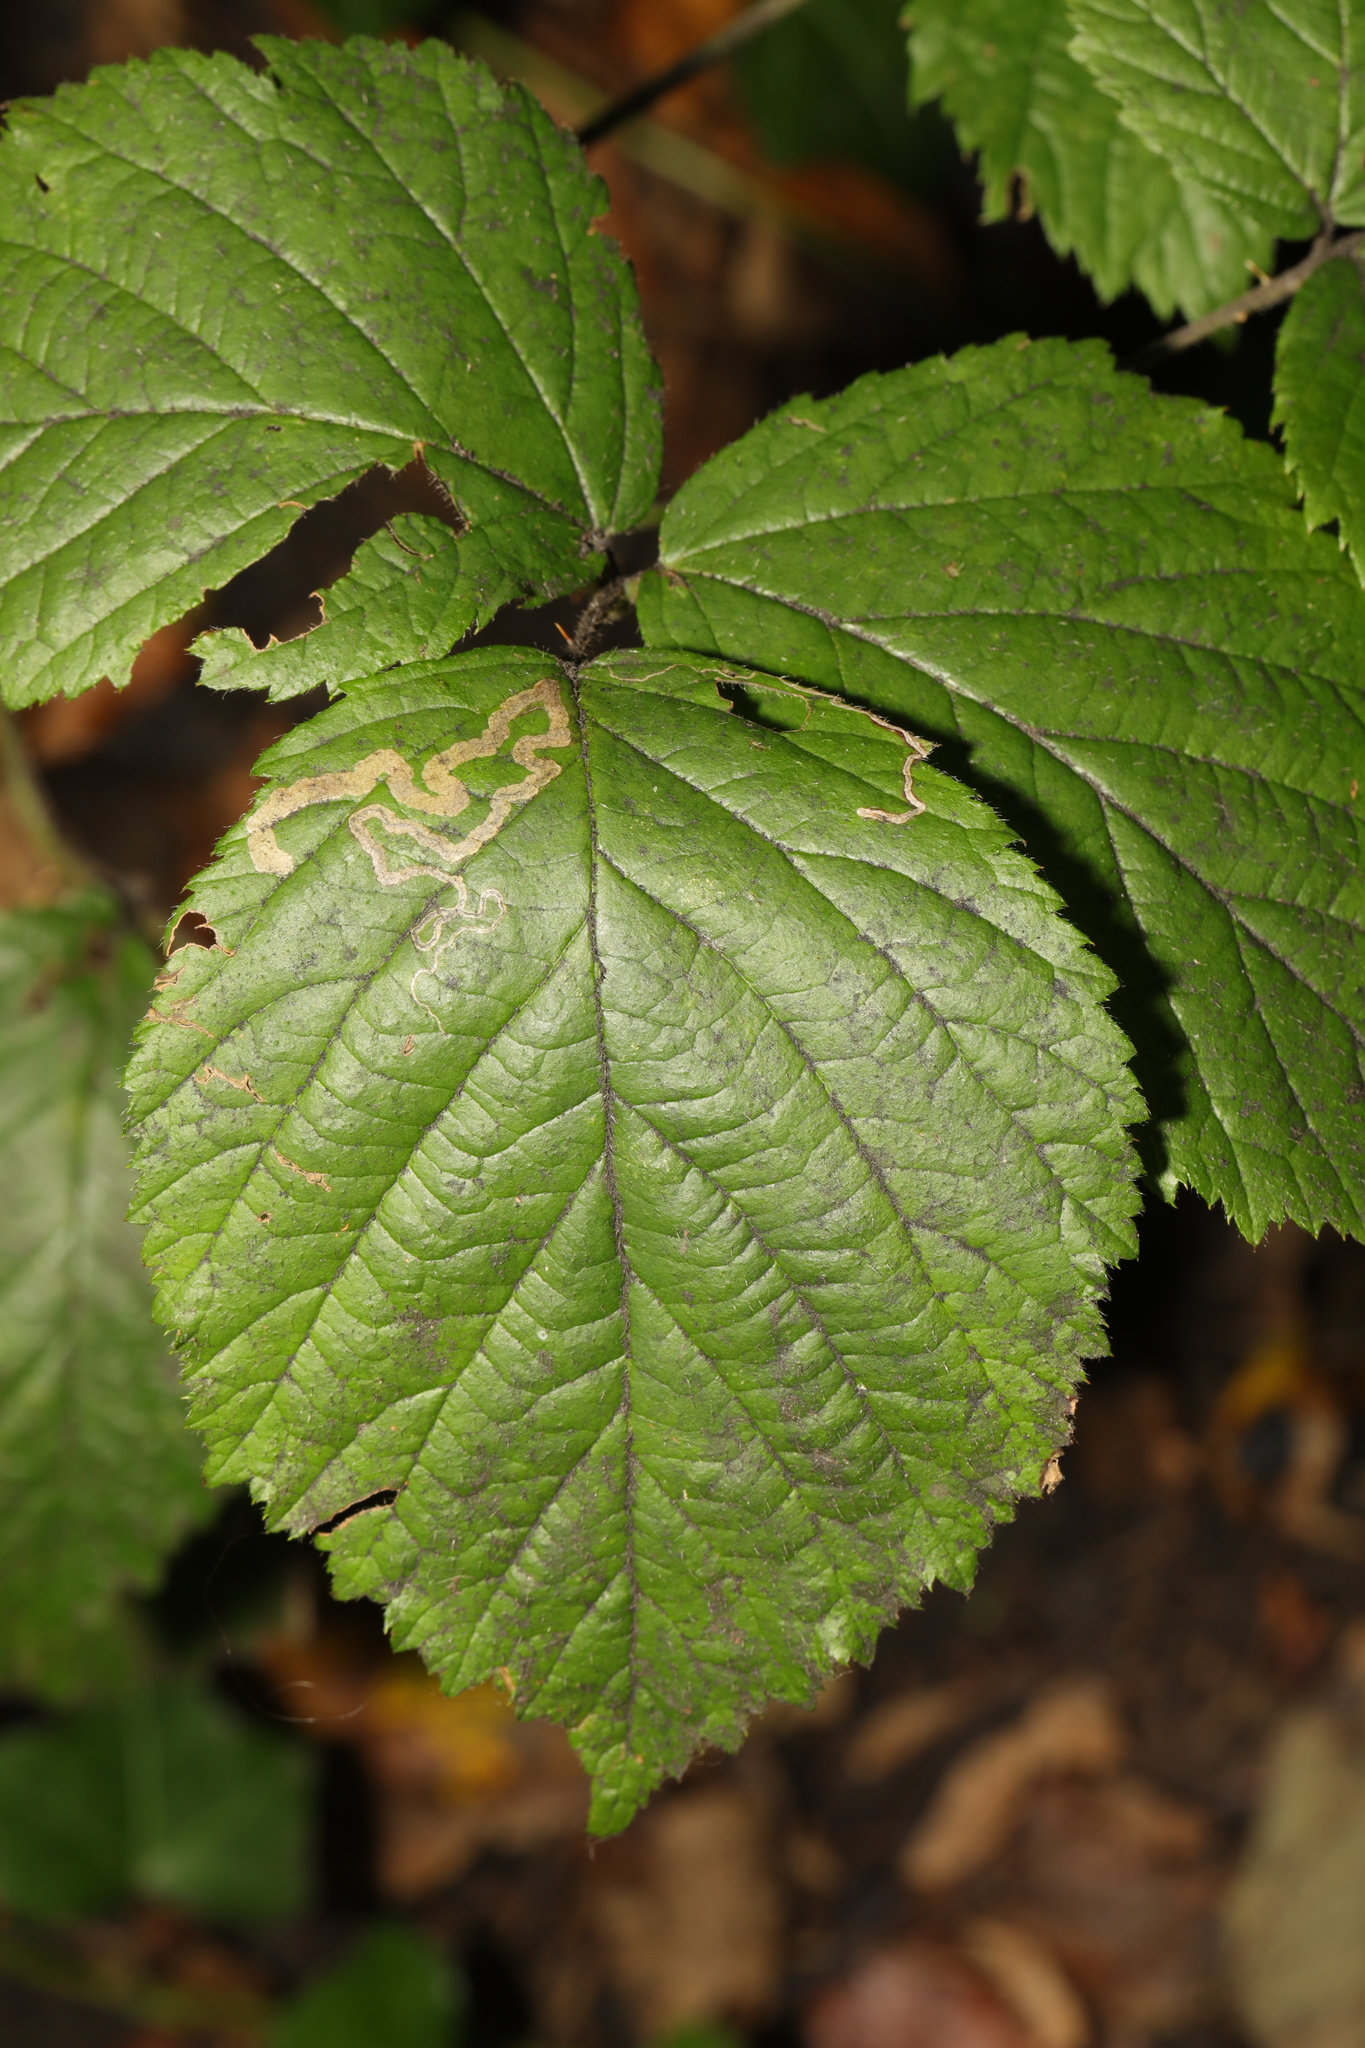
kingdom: Plantae
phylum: Tracheophyta
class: Magnoliopsida
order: Rosales
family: Rosaceae
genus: Rubus
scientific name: Rubus fruticosus
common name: Blackberry, bramble
